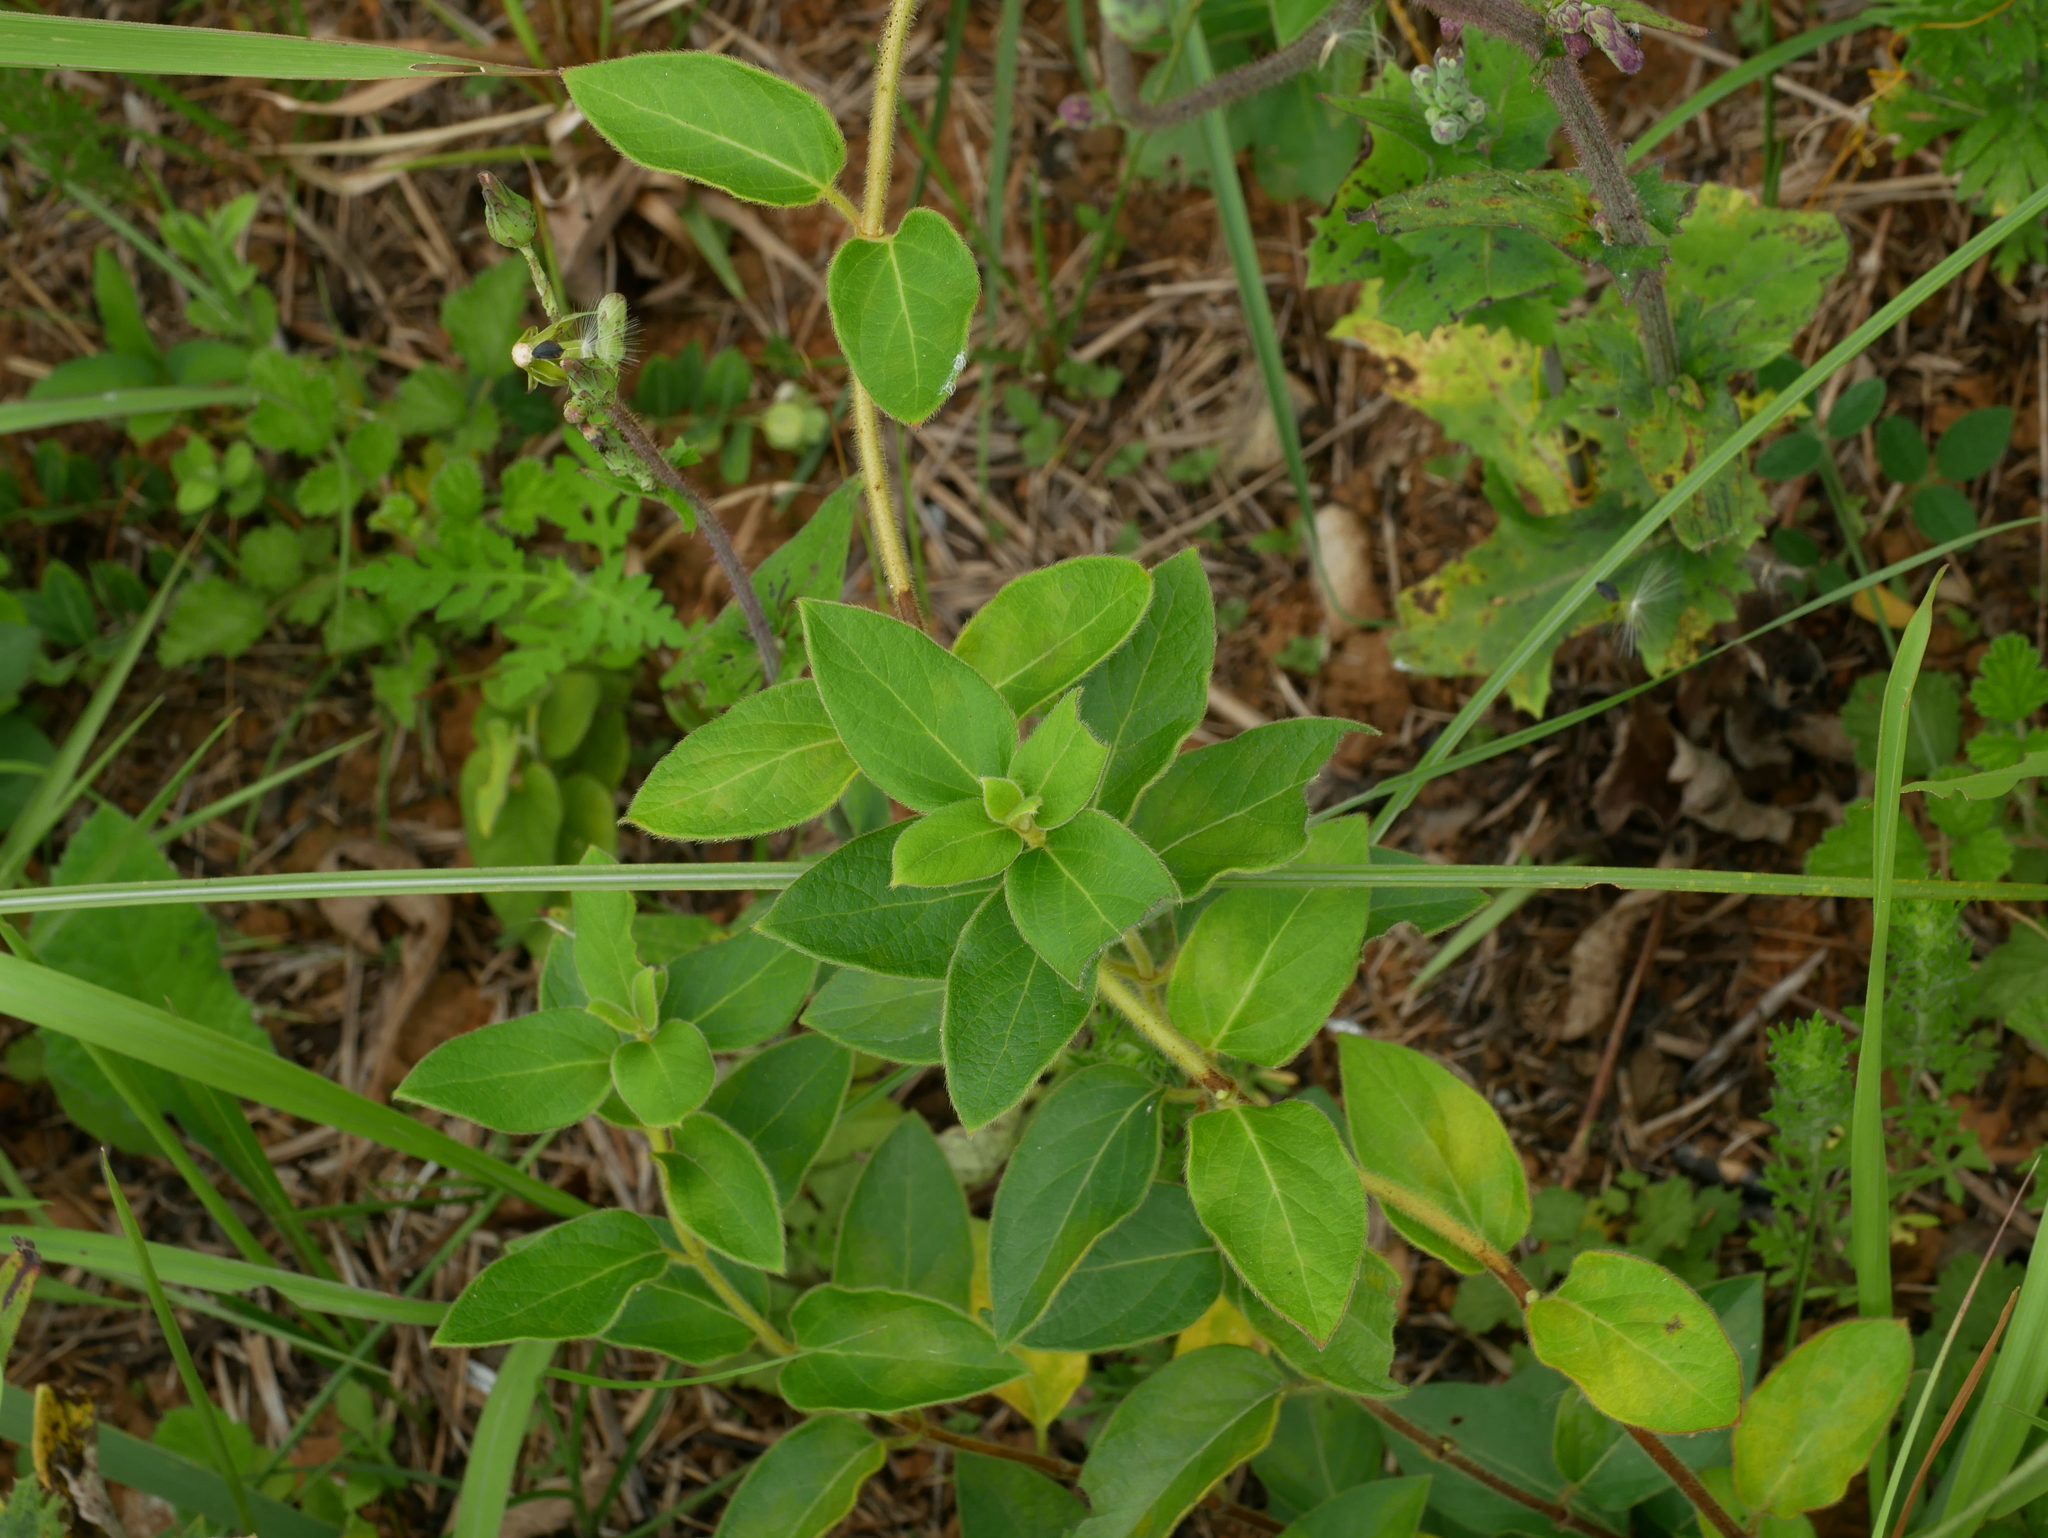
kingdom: Plantae
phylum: Tracheophyta
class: Magnoliopsida
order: Dipsacales
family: Caprifoliaceae
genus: Lonicera
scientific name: Lonicera japonica
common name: Japanese honeysuckle
